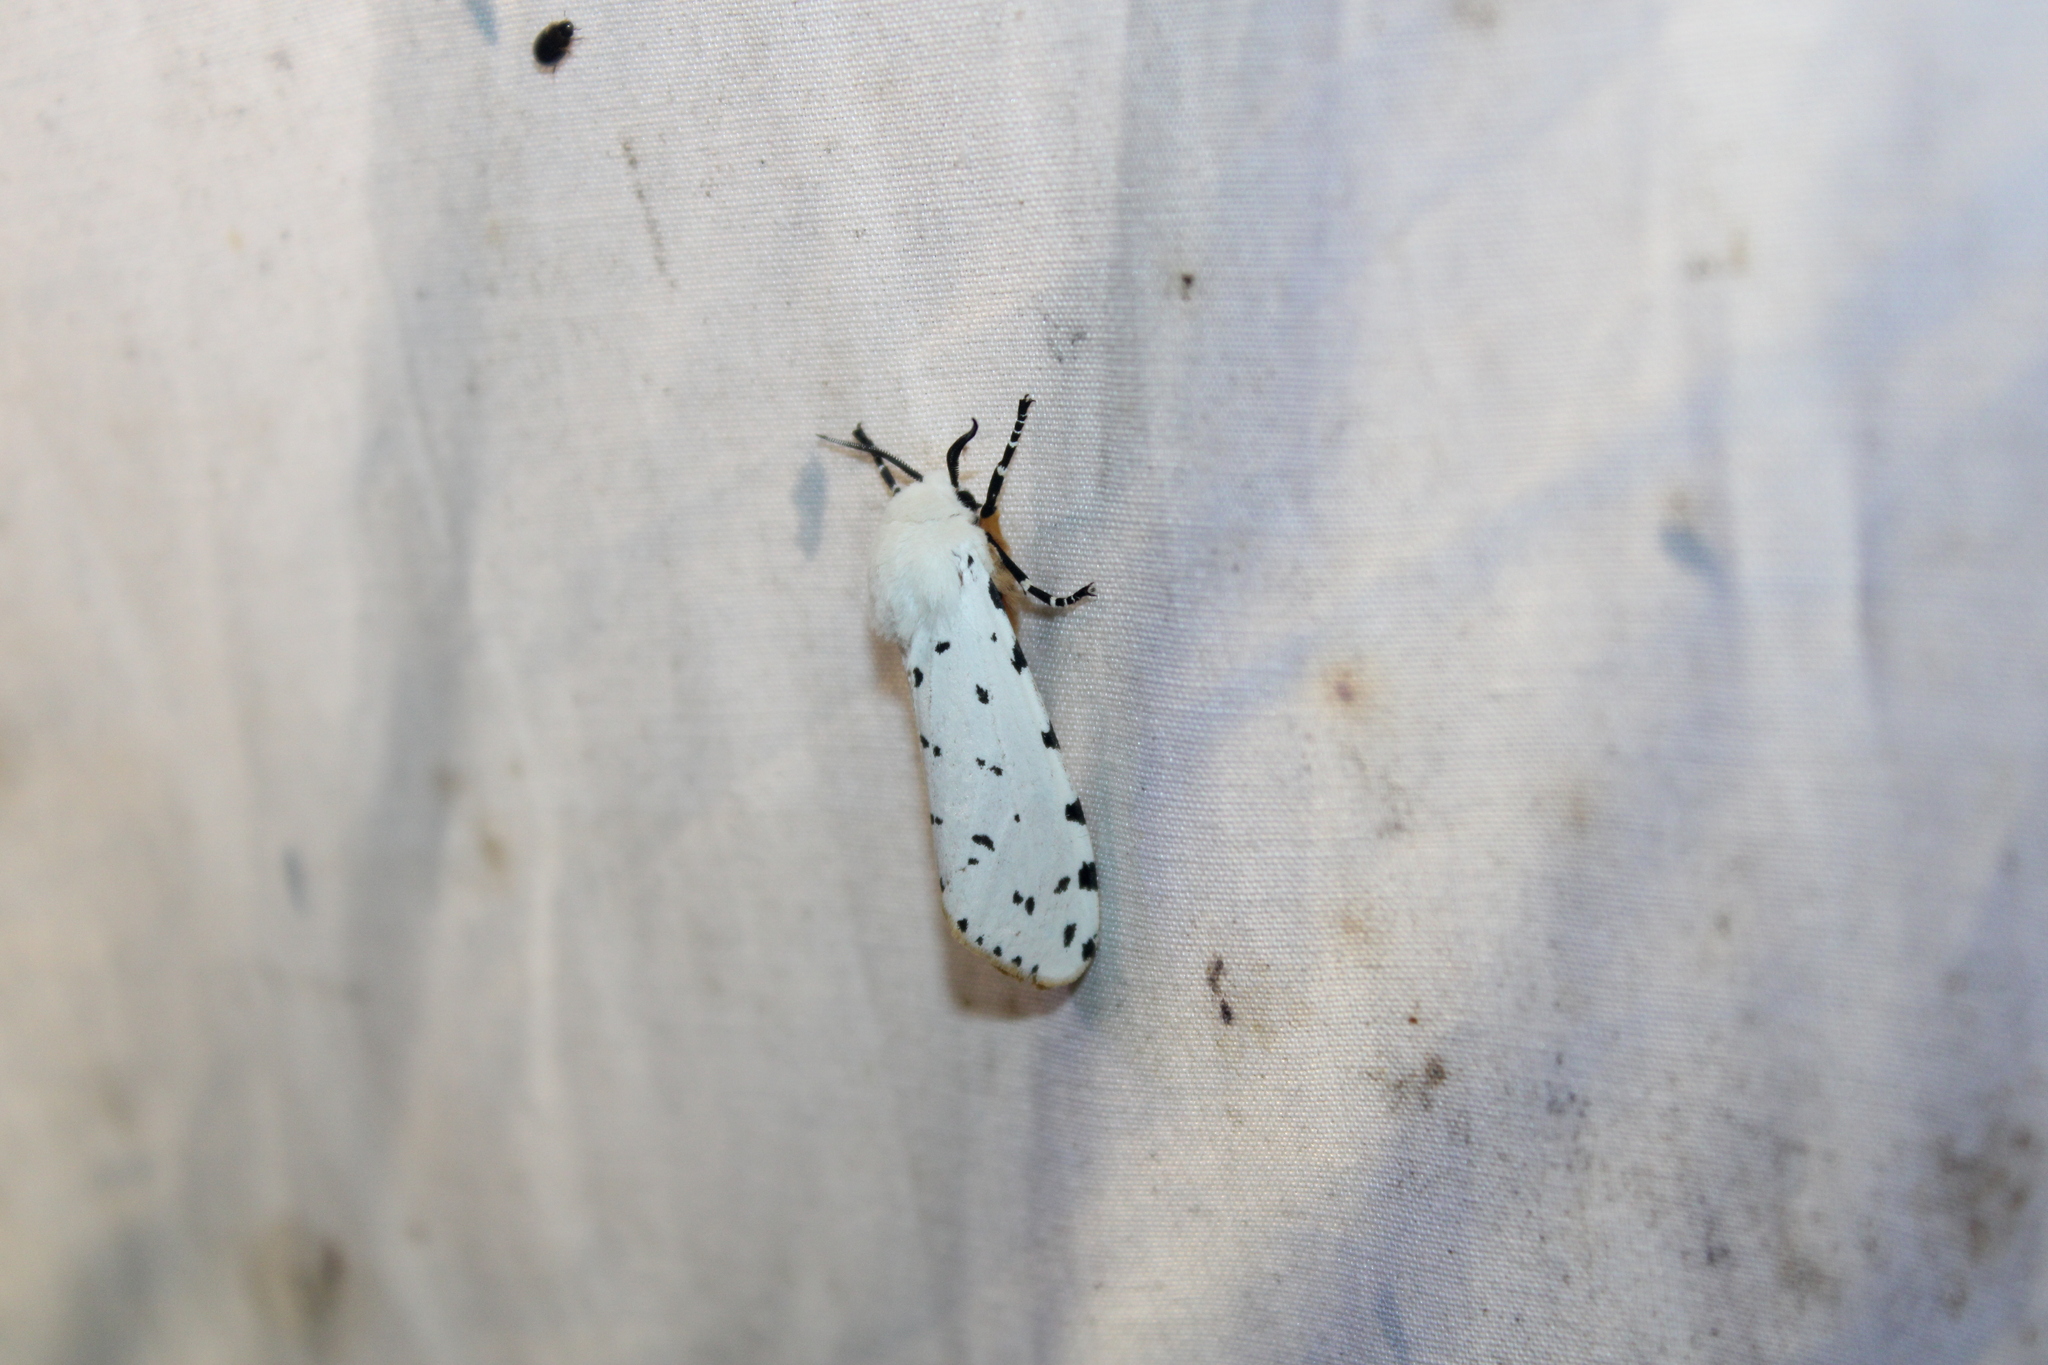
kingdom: Animalia
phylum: Arthropoda
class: Insecta
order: Lepidoptera
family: Erebidae
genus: Estigmene
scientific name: Estigmene acrea
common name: Salt marsh moth
